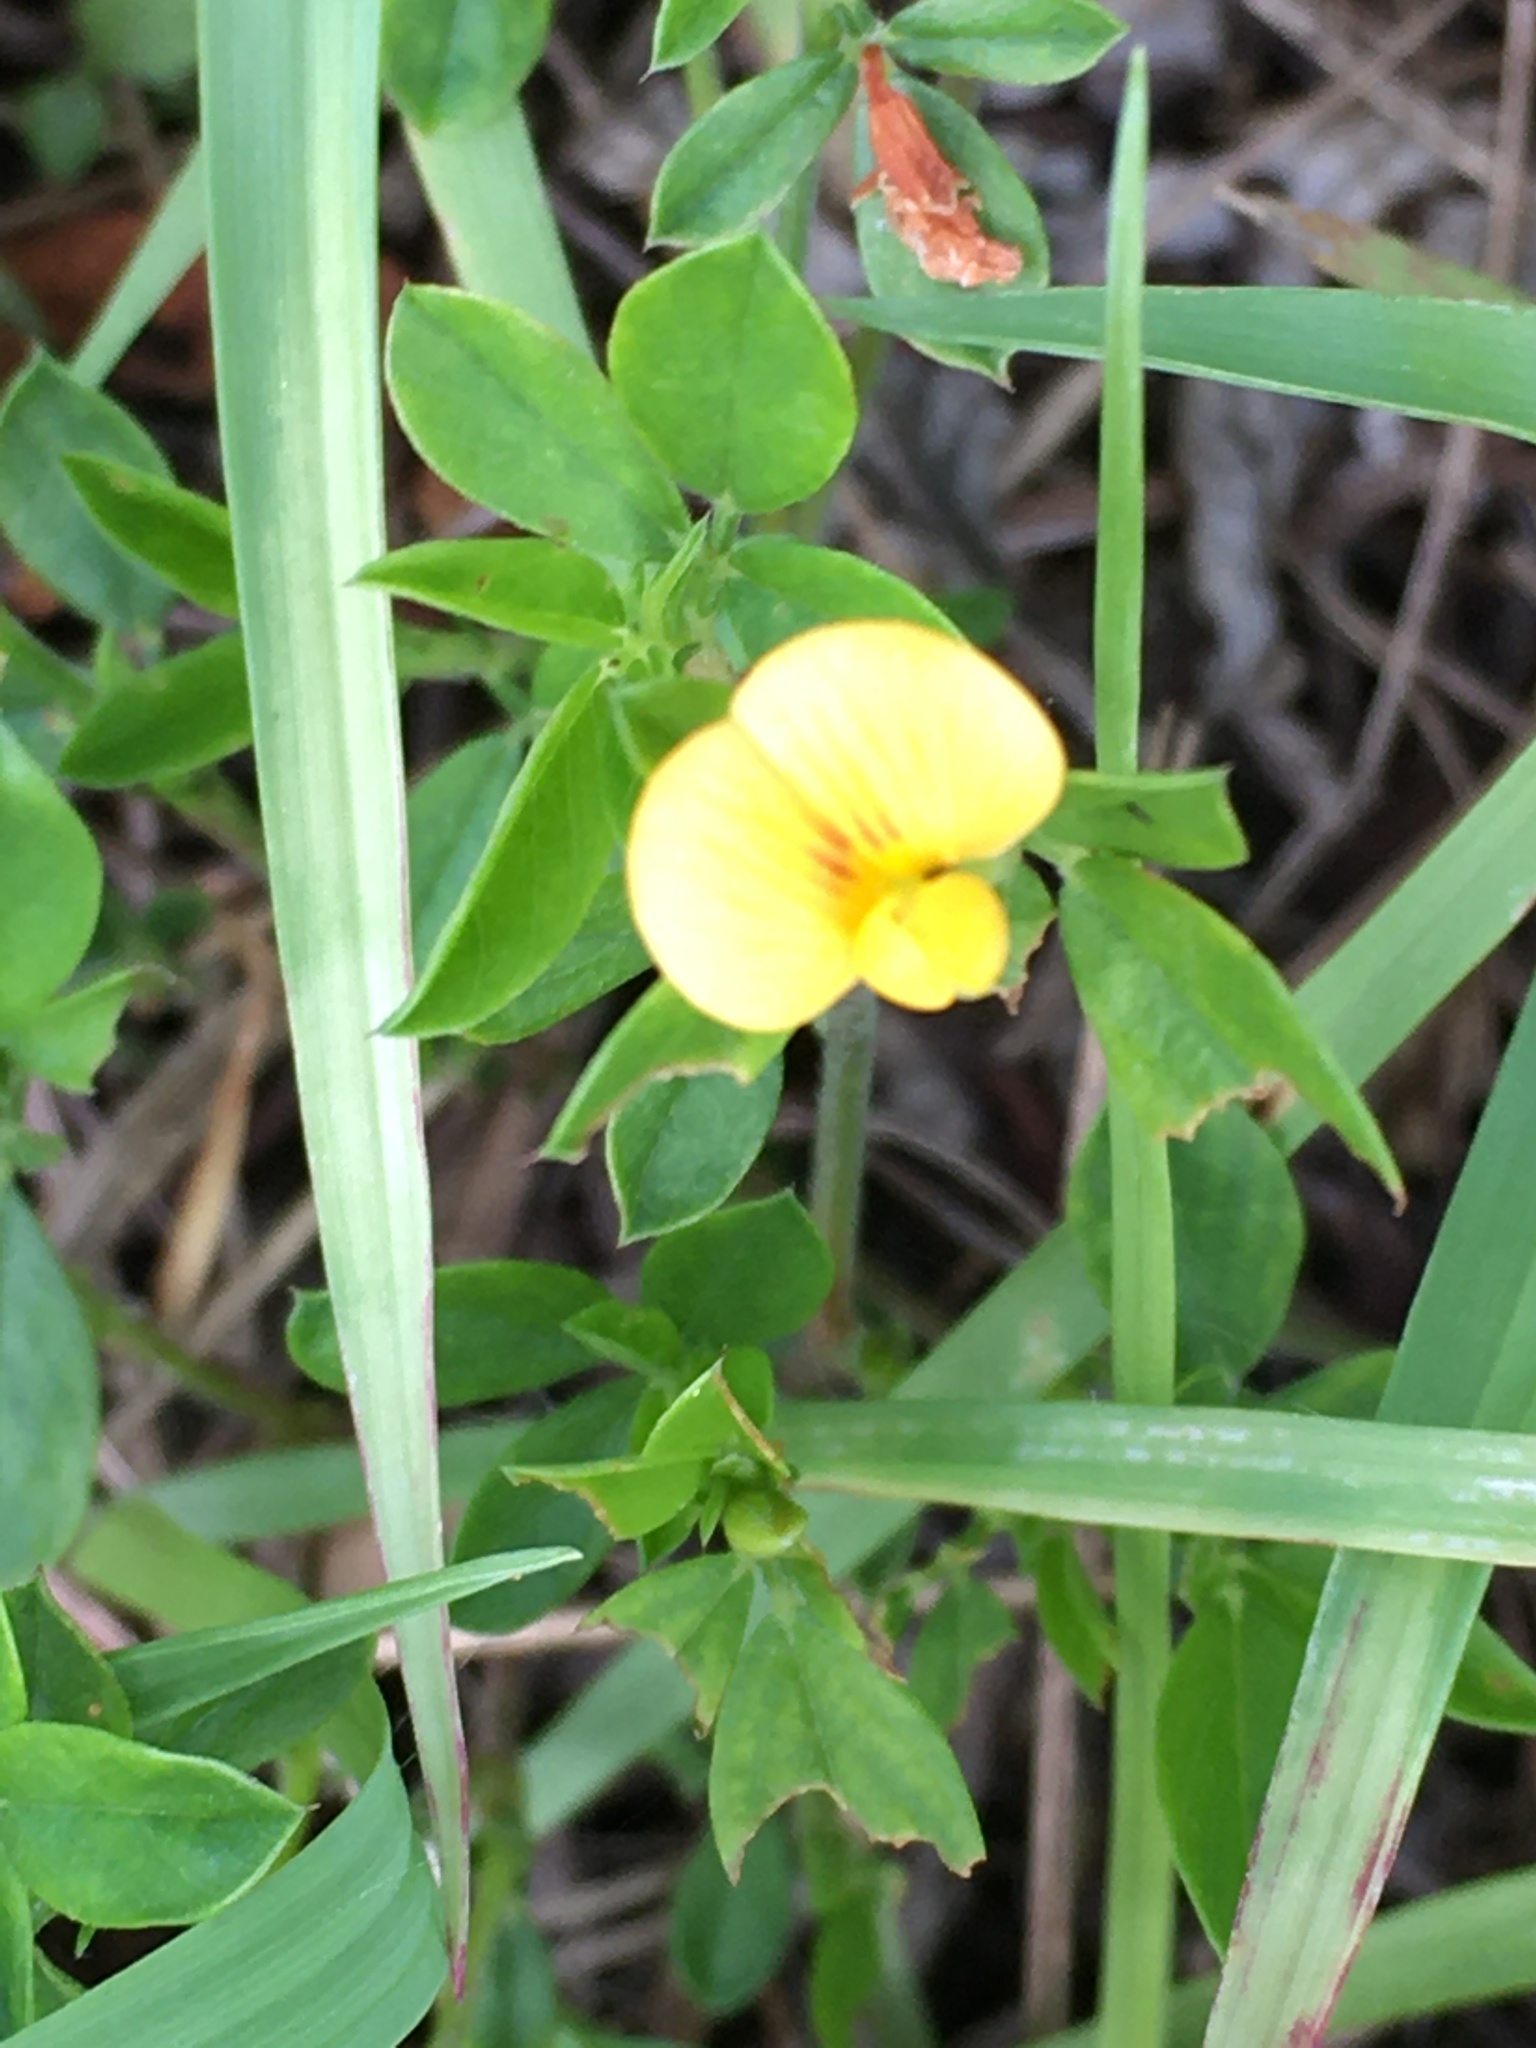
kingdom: Plantae
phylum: Tracheophyta
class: Magnoliopsida
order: Fabales
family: Fabaceae
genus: Stylosanthes
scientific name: Stylosanthes biflora
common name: Two-flower pencil-flower
